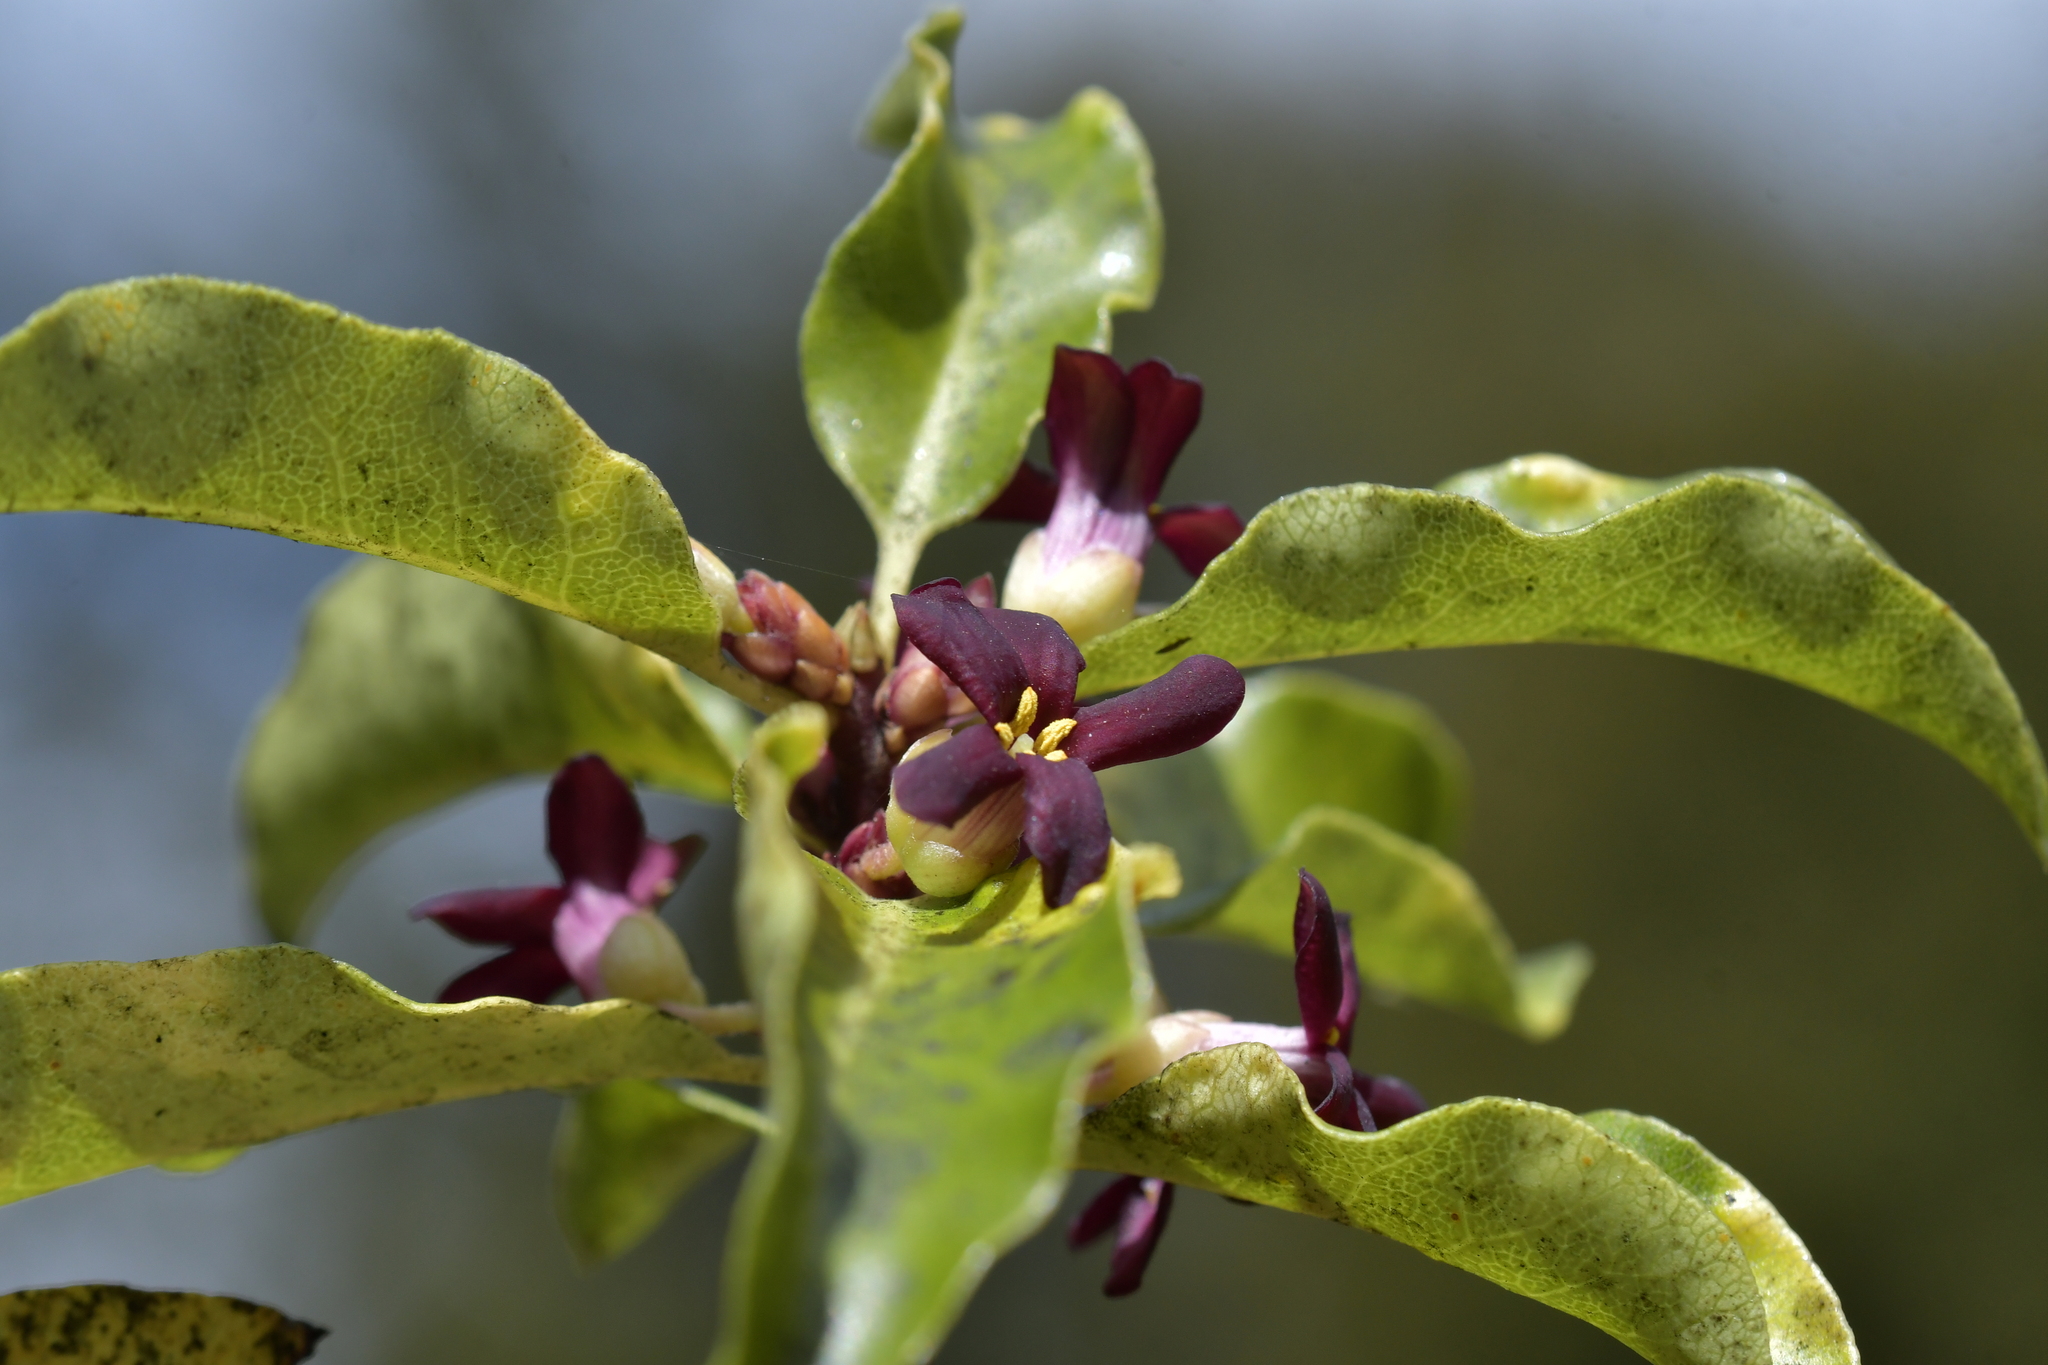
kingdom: Plantae
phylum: Tracheophyta
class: Magnoliopsida
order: Apiales
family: Pittosporaceae
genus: Pittosporum
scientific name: Pittosporum tenuifolium
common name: Kohuhu
